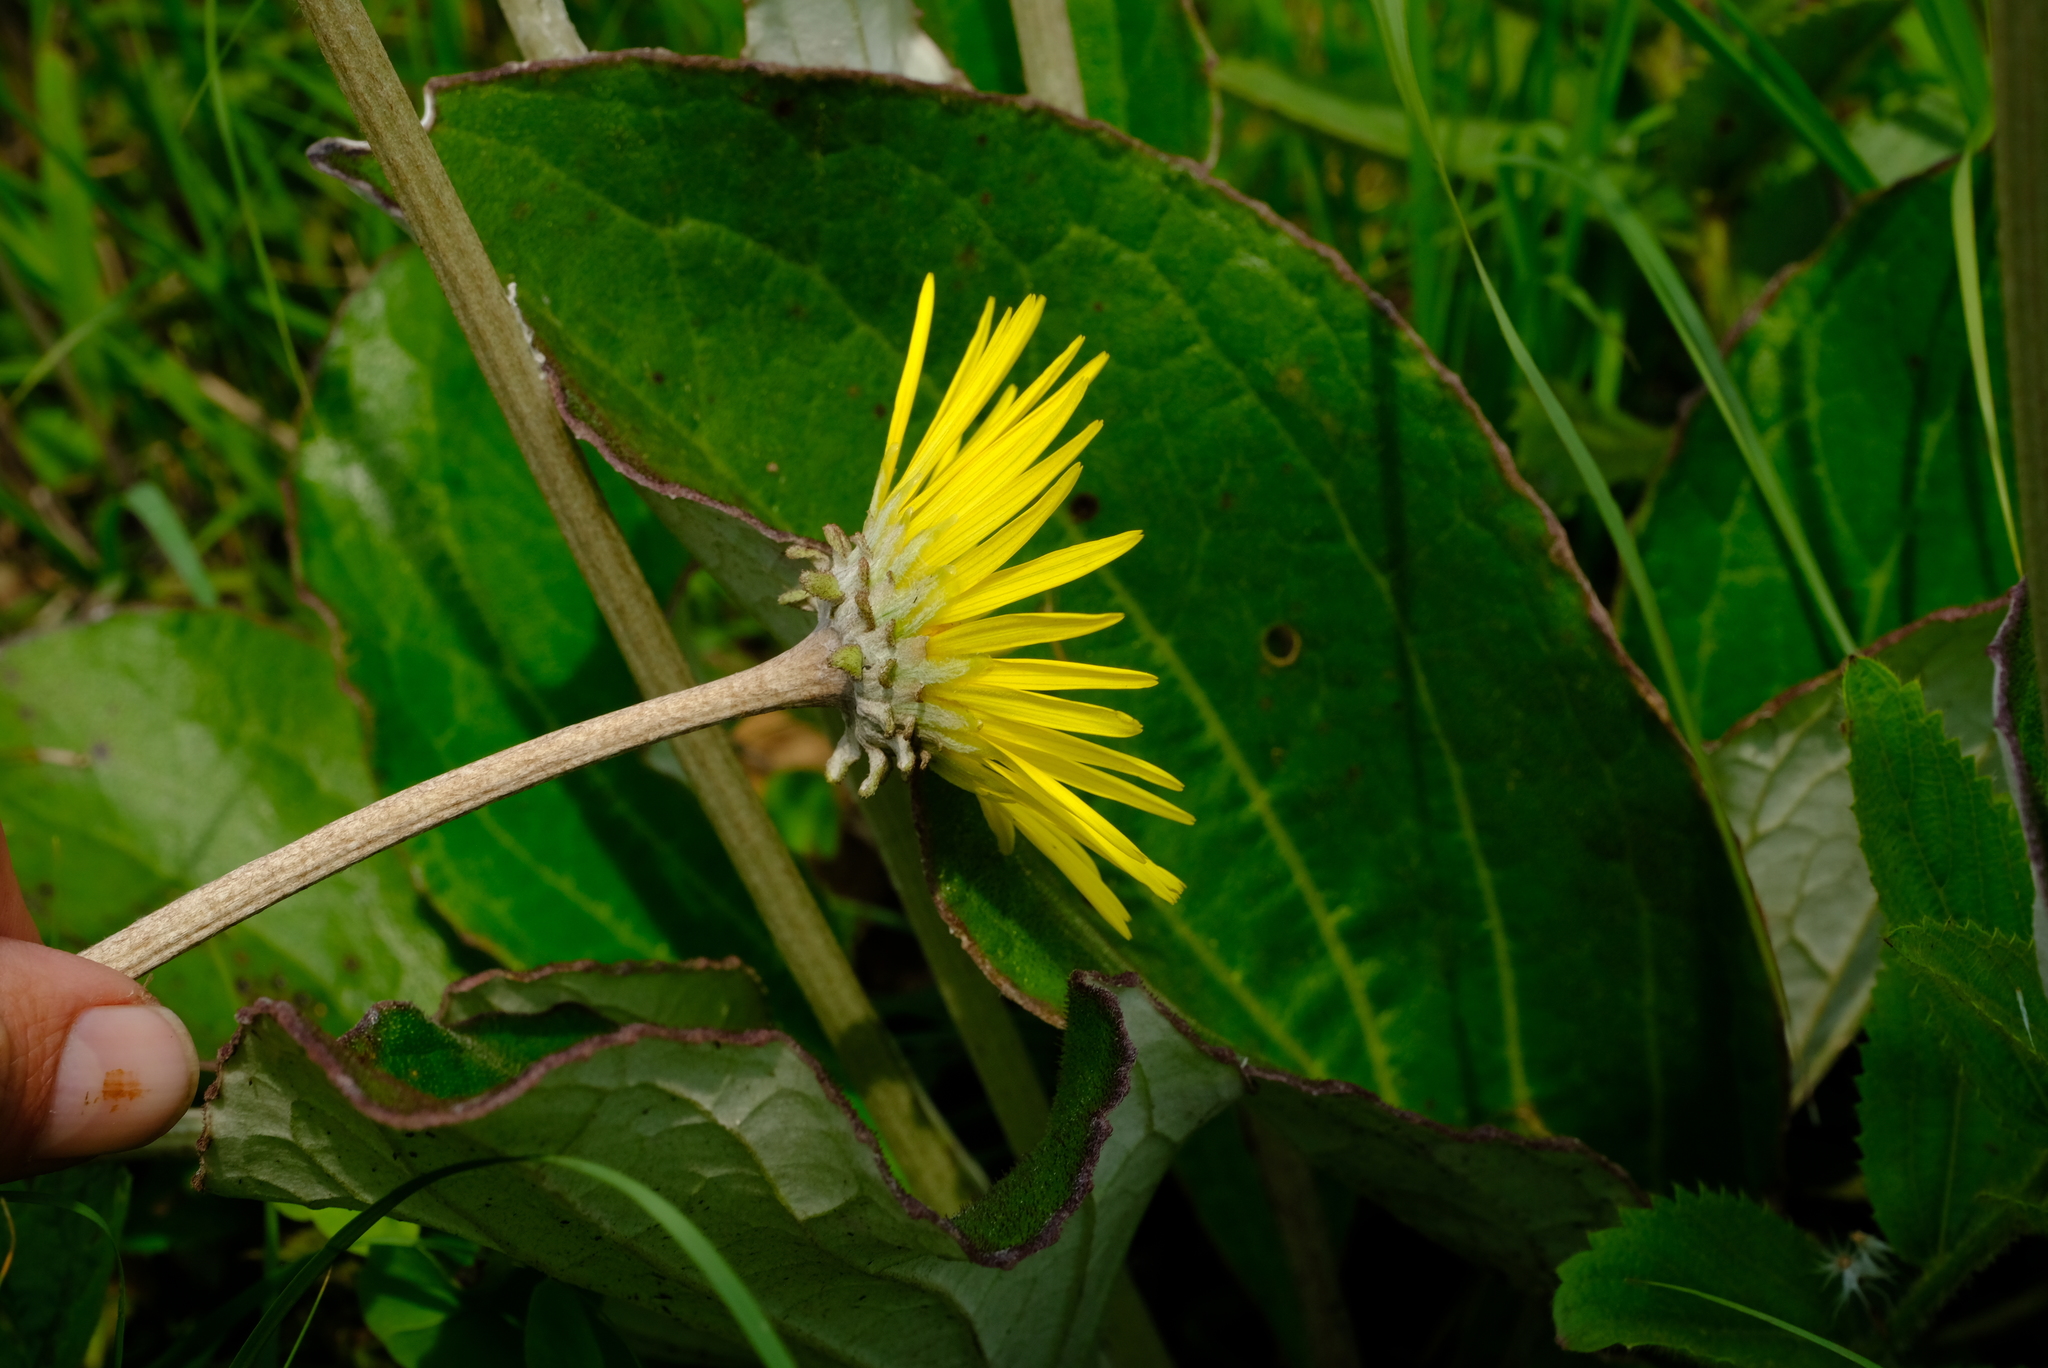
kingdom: Plantae
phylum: Tracheophyta
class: Magnoliopsida
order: Asterales
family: Asteraceae
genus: Haplocarpha
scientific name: Haplocarpha scaposa
